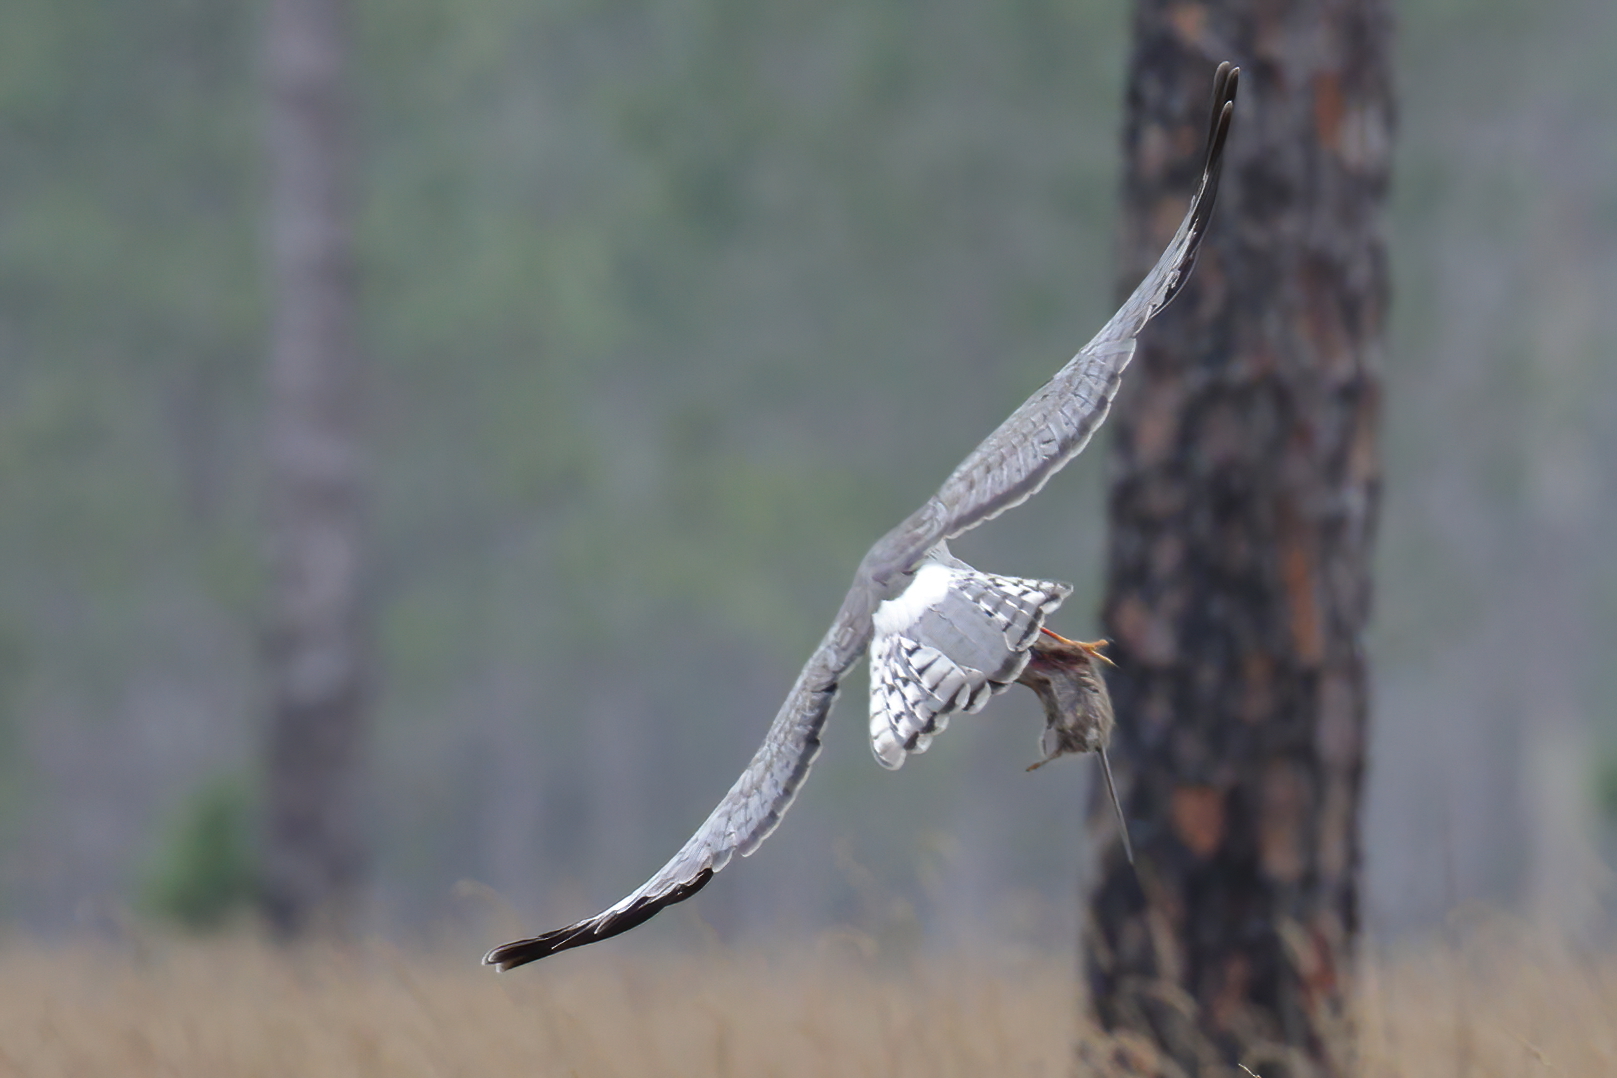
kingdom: Animalia
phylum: Chordata
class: Mammalia
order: Rodentia
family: Cricetidae
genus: Oryzomys
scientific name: Oryzomys palustris
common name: Marsh rice rat
